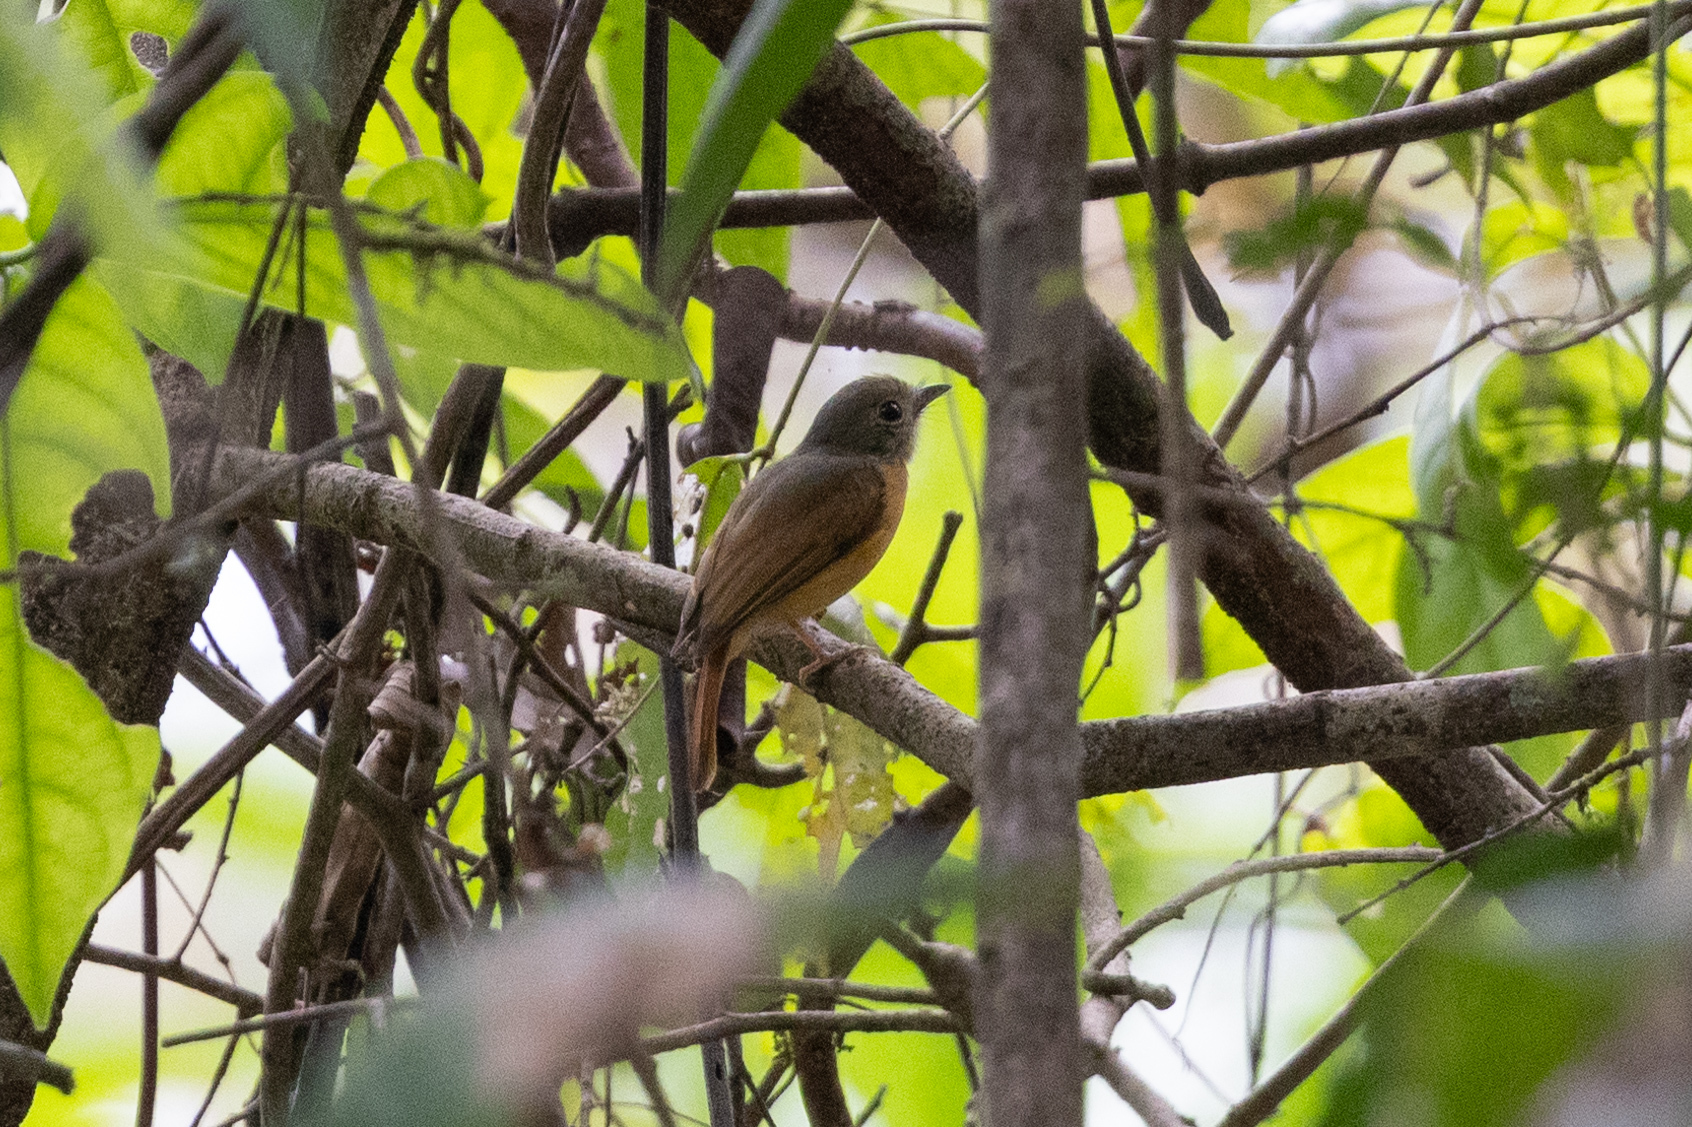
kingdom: Animalia
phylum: Chordata
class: Aves
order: Passeriformes
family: Tyrannidae
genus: Terenotriccus
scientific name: Terenotriccus erythrurus
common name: Ruddy-tailed flycatcher
